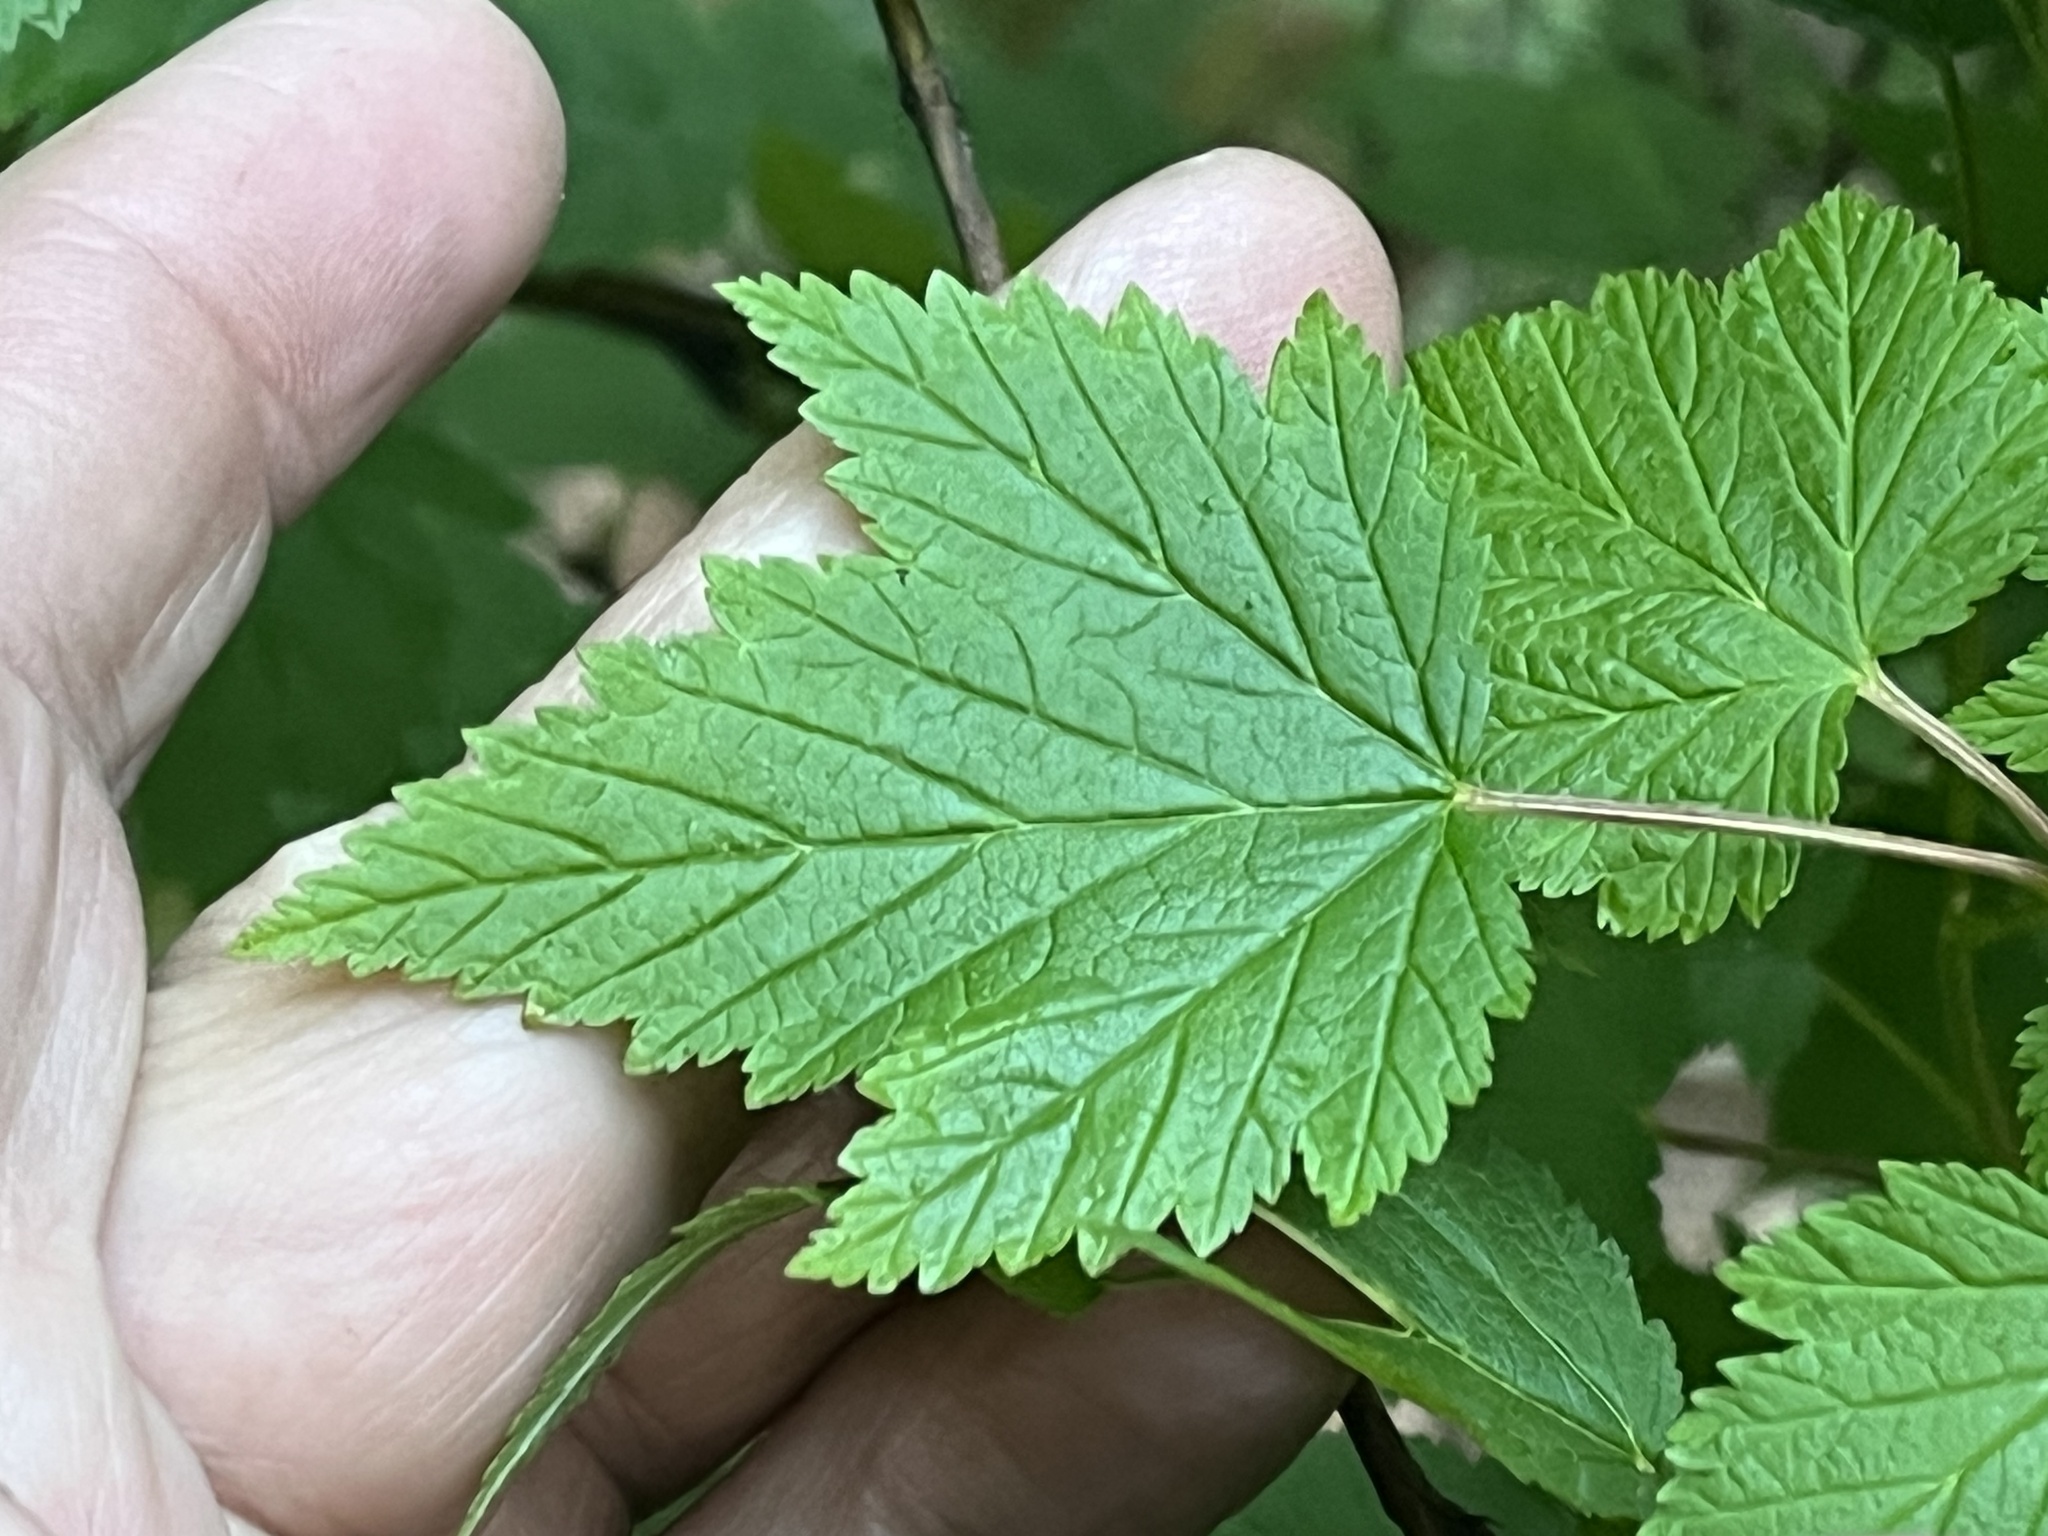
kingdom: Plantae
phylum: Tracheophyta
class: Magnoliopsida
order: Rosales
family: Rosaceae
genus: Physocarpus
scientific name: Physocarpus capitatus
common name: Pacific ninebark
